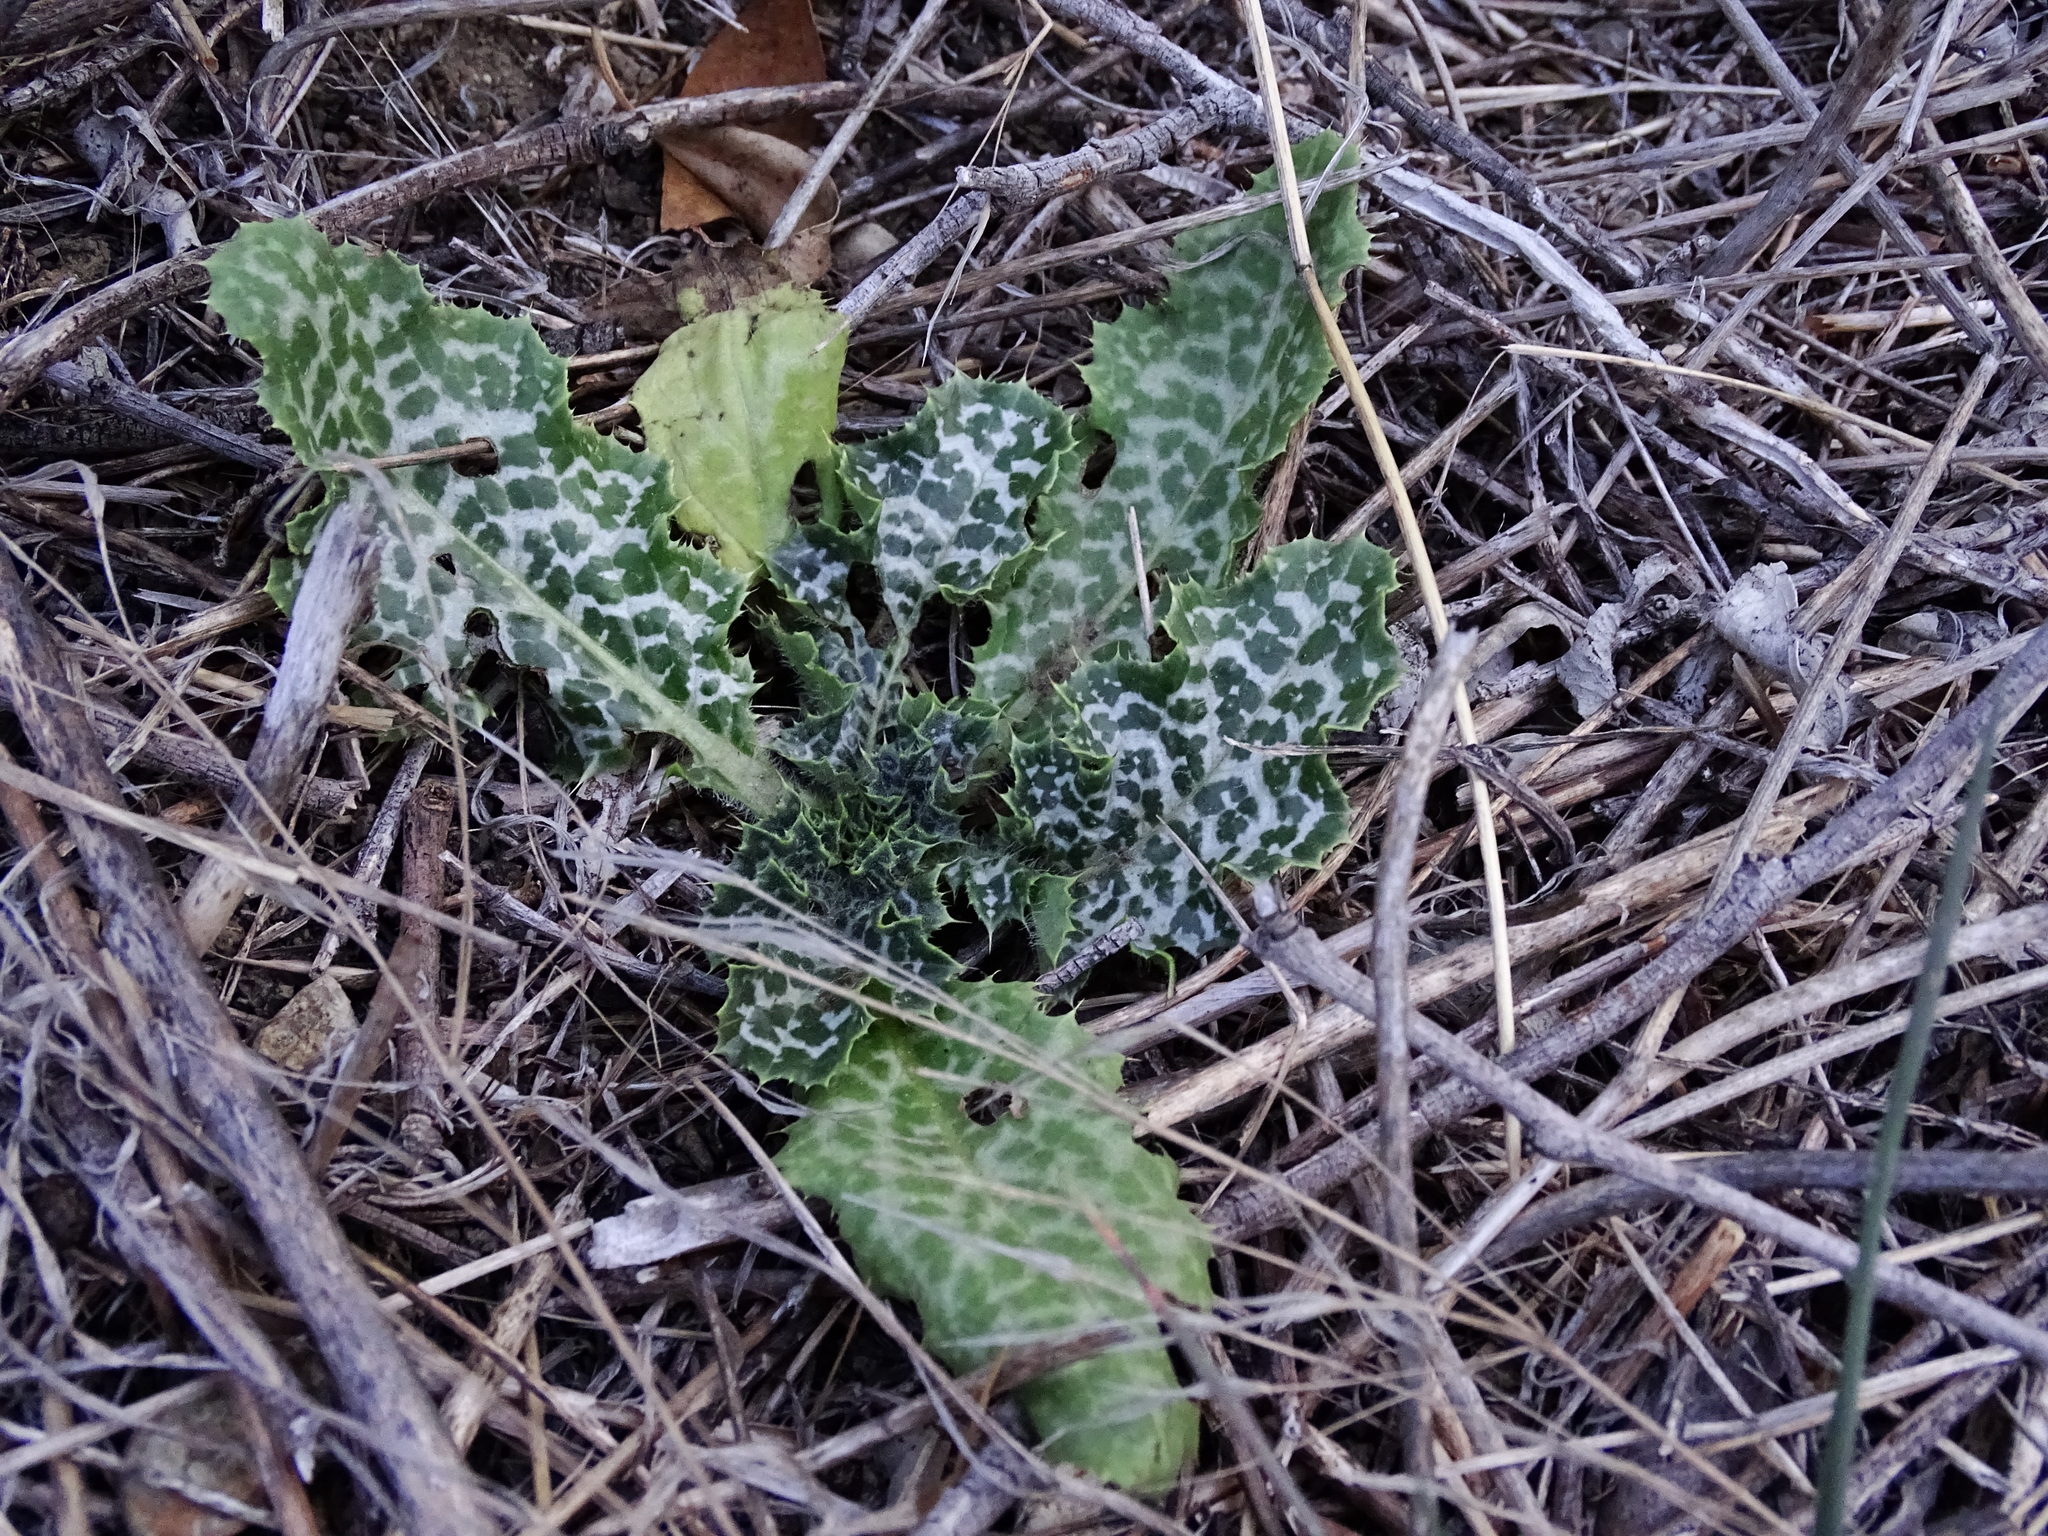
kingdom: Plantae
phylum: Tracheophyta
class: Magnoliopsida
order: Asterales
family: Asteraceae
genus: Silybum
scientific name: Silybum marianum
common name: Milk thistle
